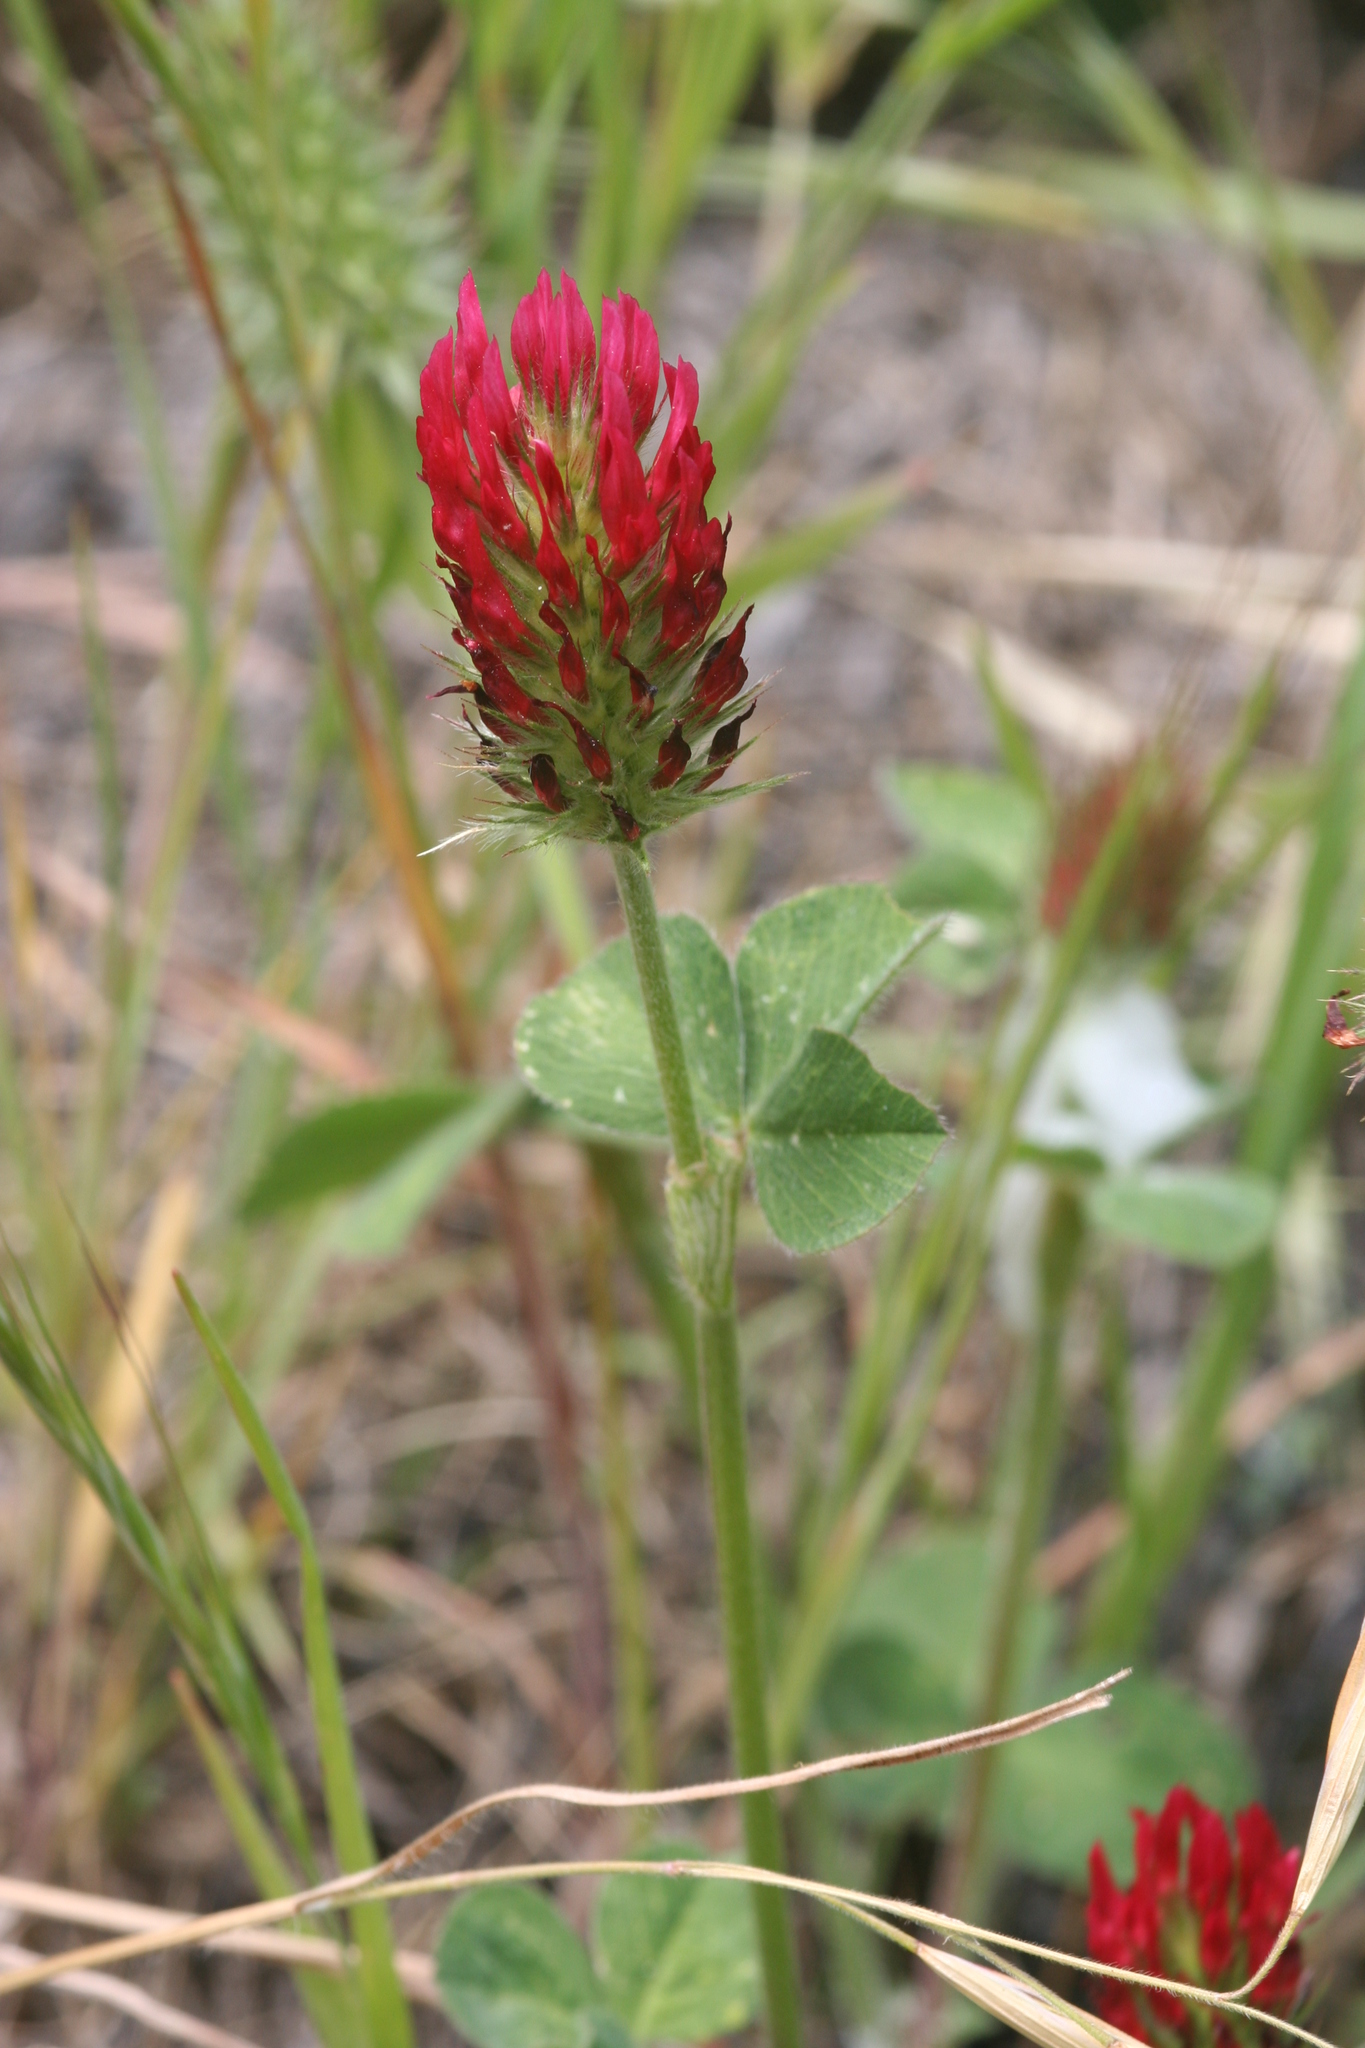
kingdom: Plantae
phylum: Tracheophyta
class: Magnoliopsida
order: Fabales
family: Fabaceae
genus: Trifolium
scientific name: Trifolium incarnatum
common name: Crimson clover
